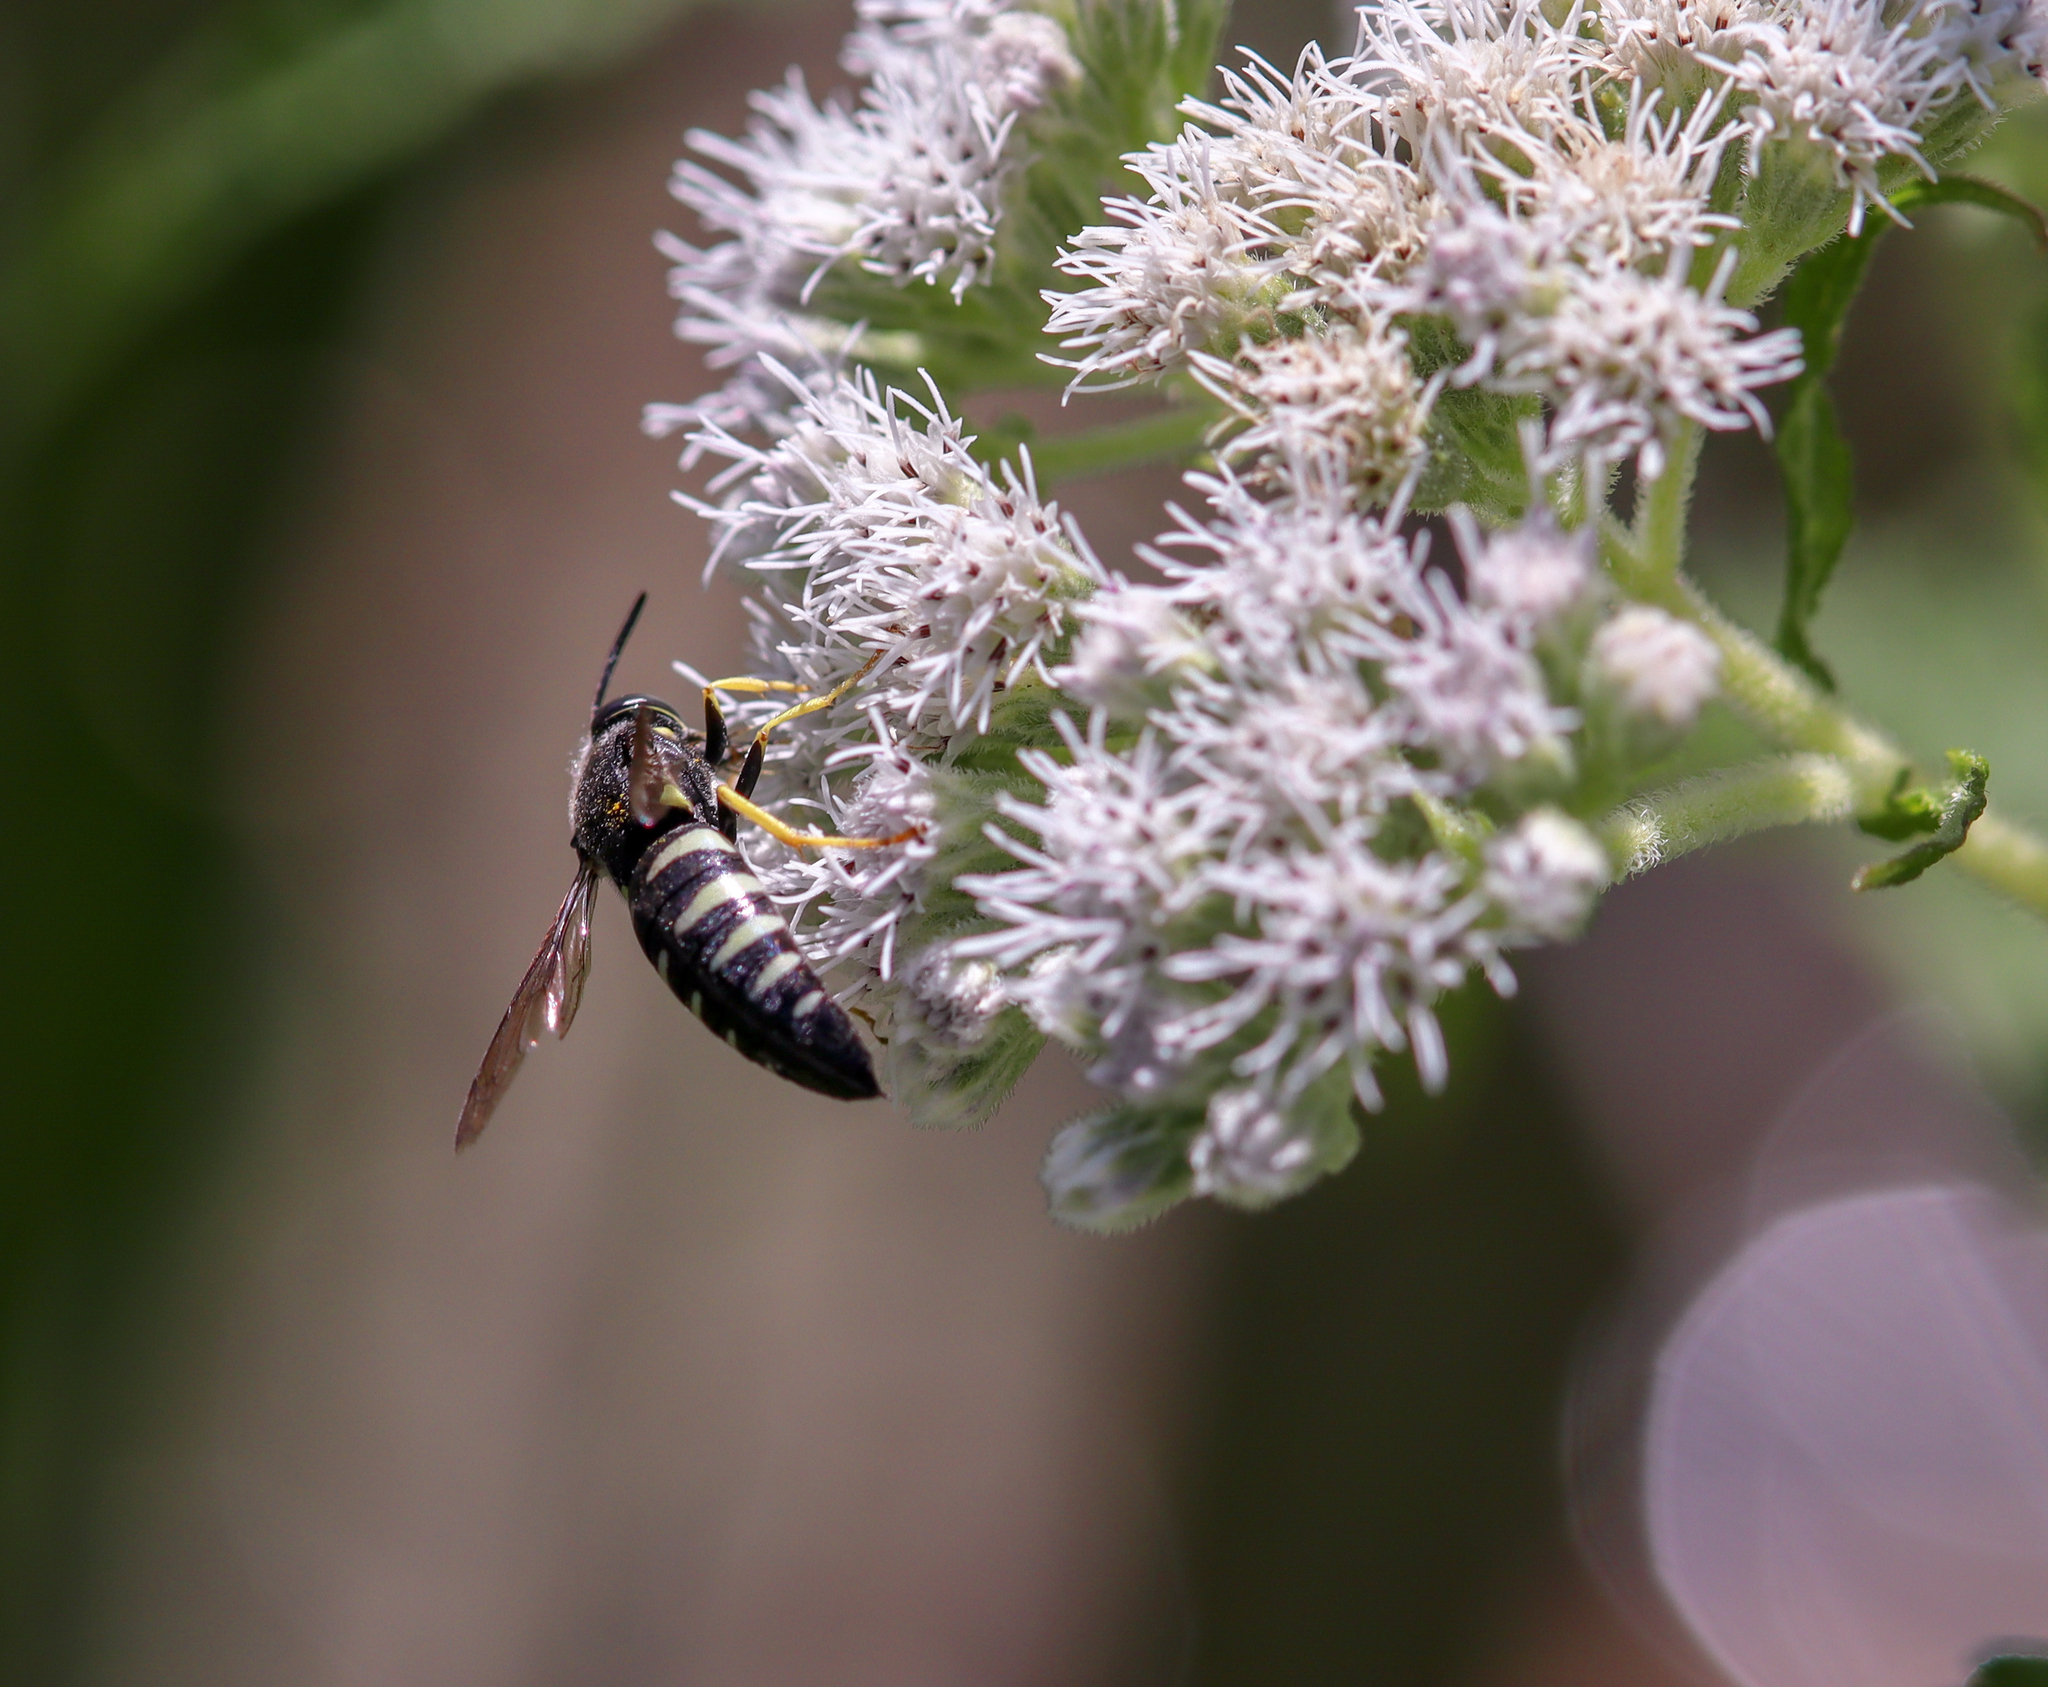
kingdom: Animalia
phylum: Arthropoda
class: Insecta
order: Hymenoptera
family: Crabronidae
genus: Bicyrtes
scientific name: Bicyrtes quadrifasciatus
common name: Four-banded stink bug hunter wasp
